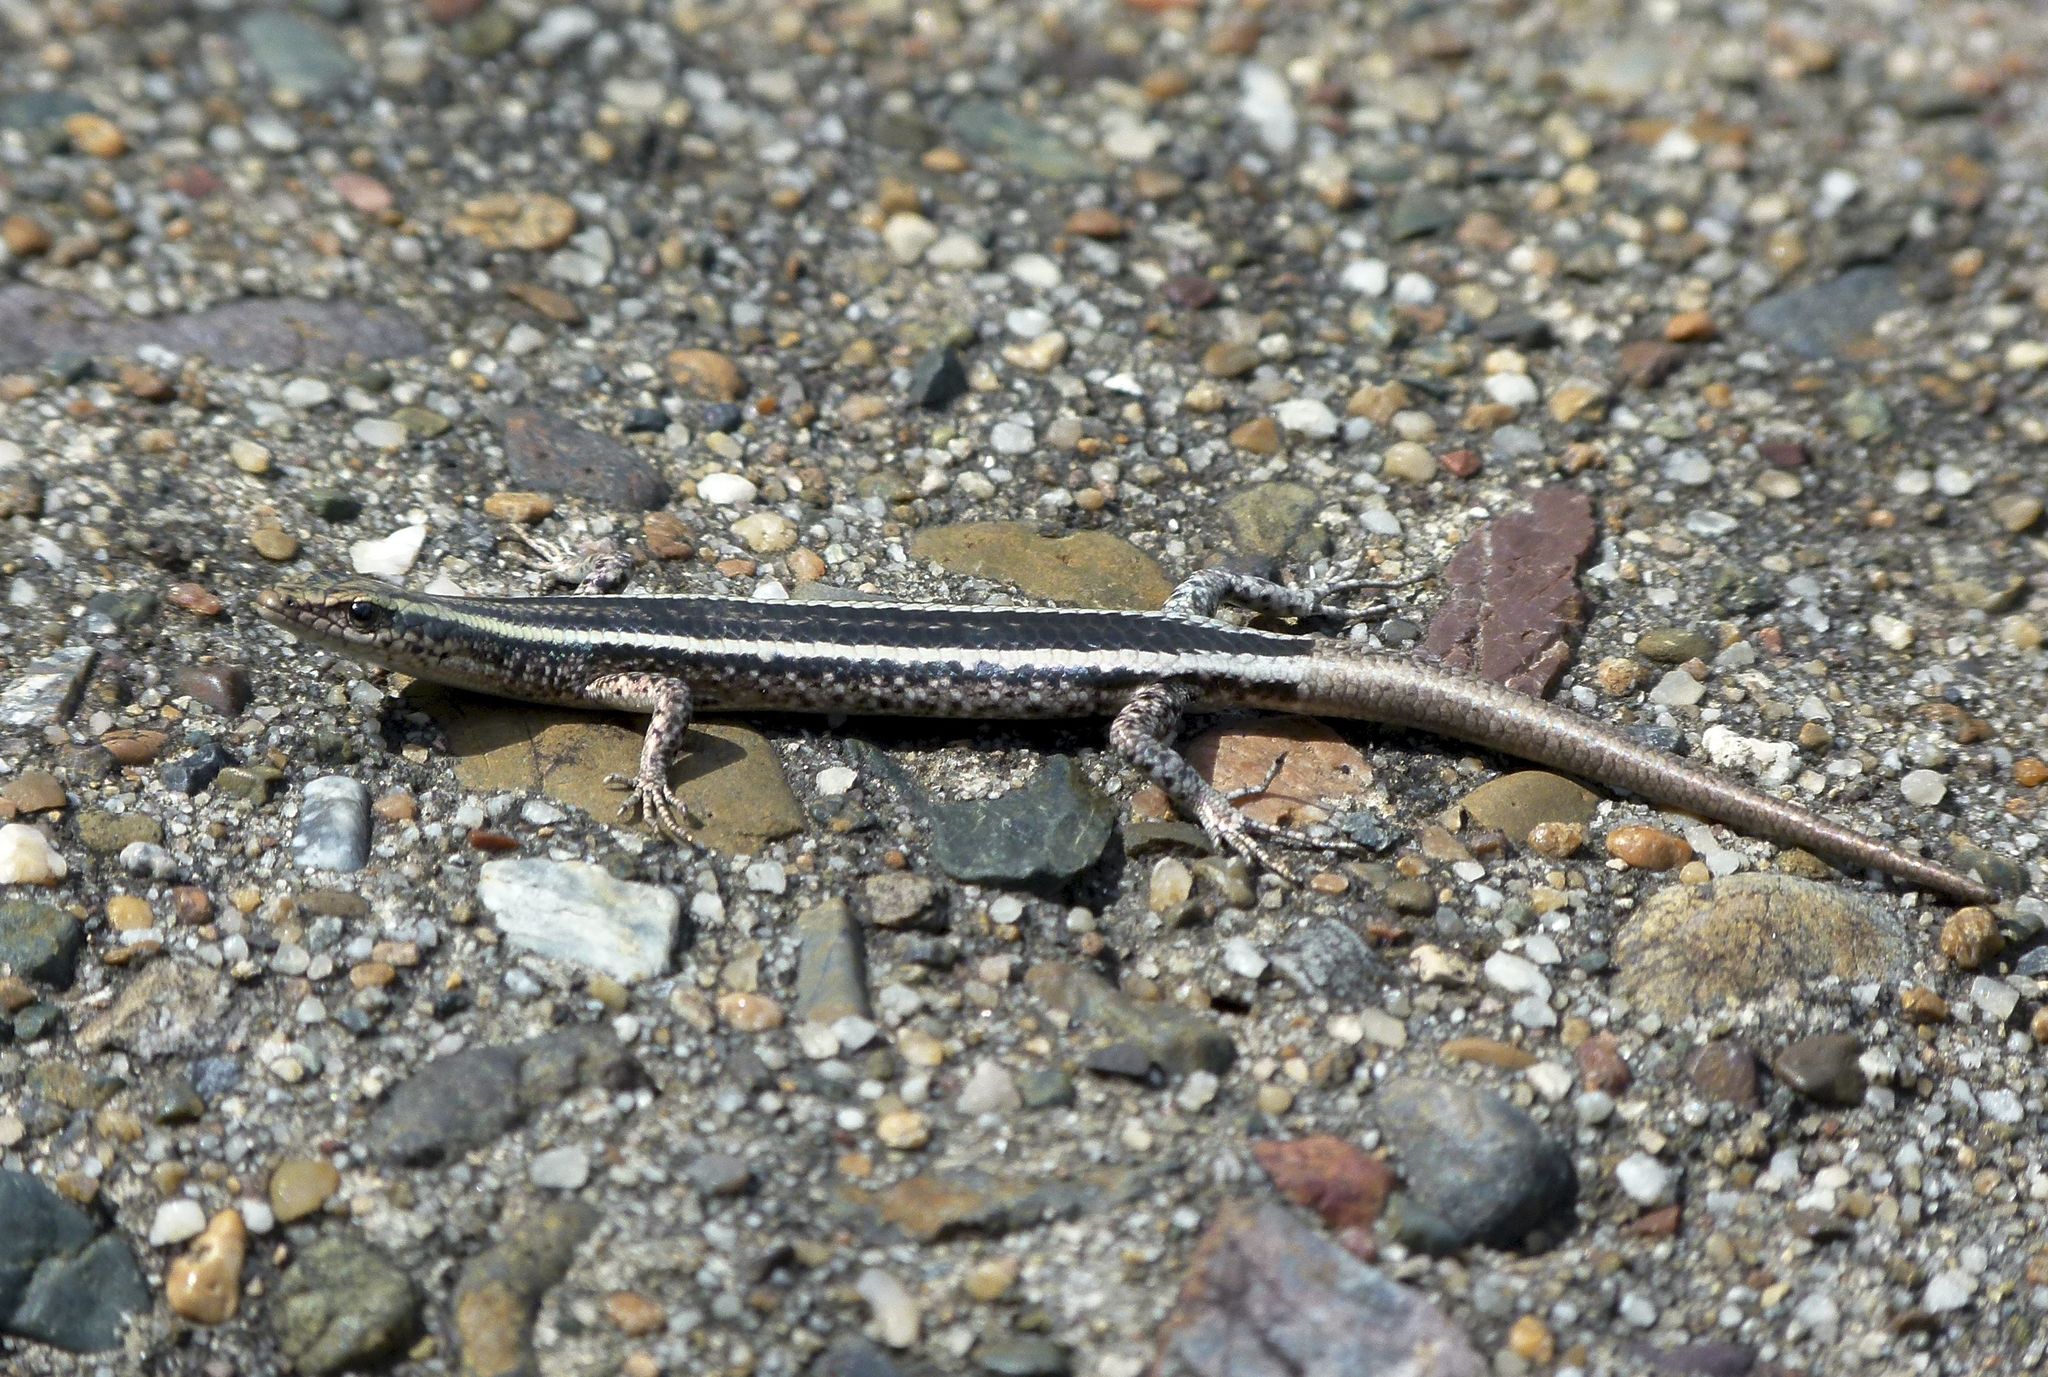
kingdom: Animalia
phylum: Chordata
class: Squamata
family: Scincidae
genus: Cryptoblepharus
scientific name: Cryptoblepharus pulcher
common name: Elegant snake-eyed skink
